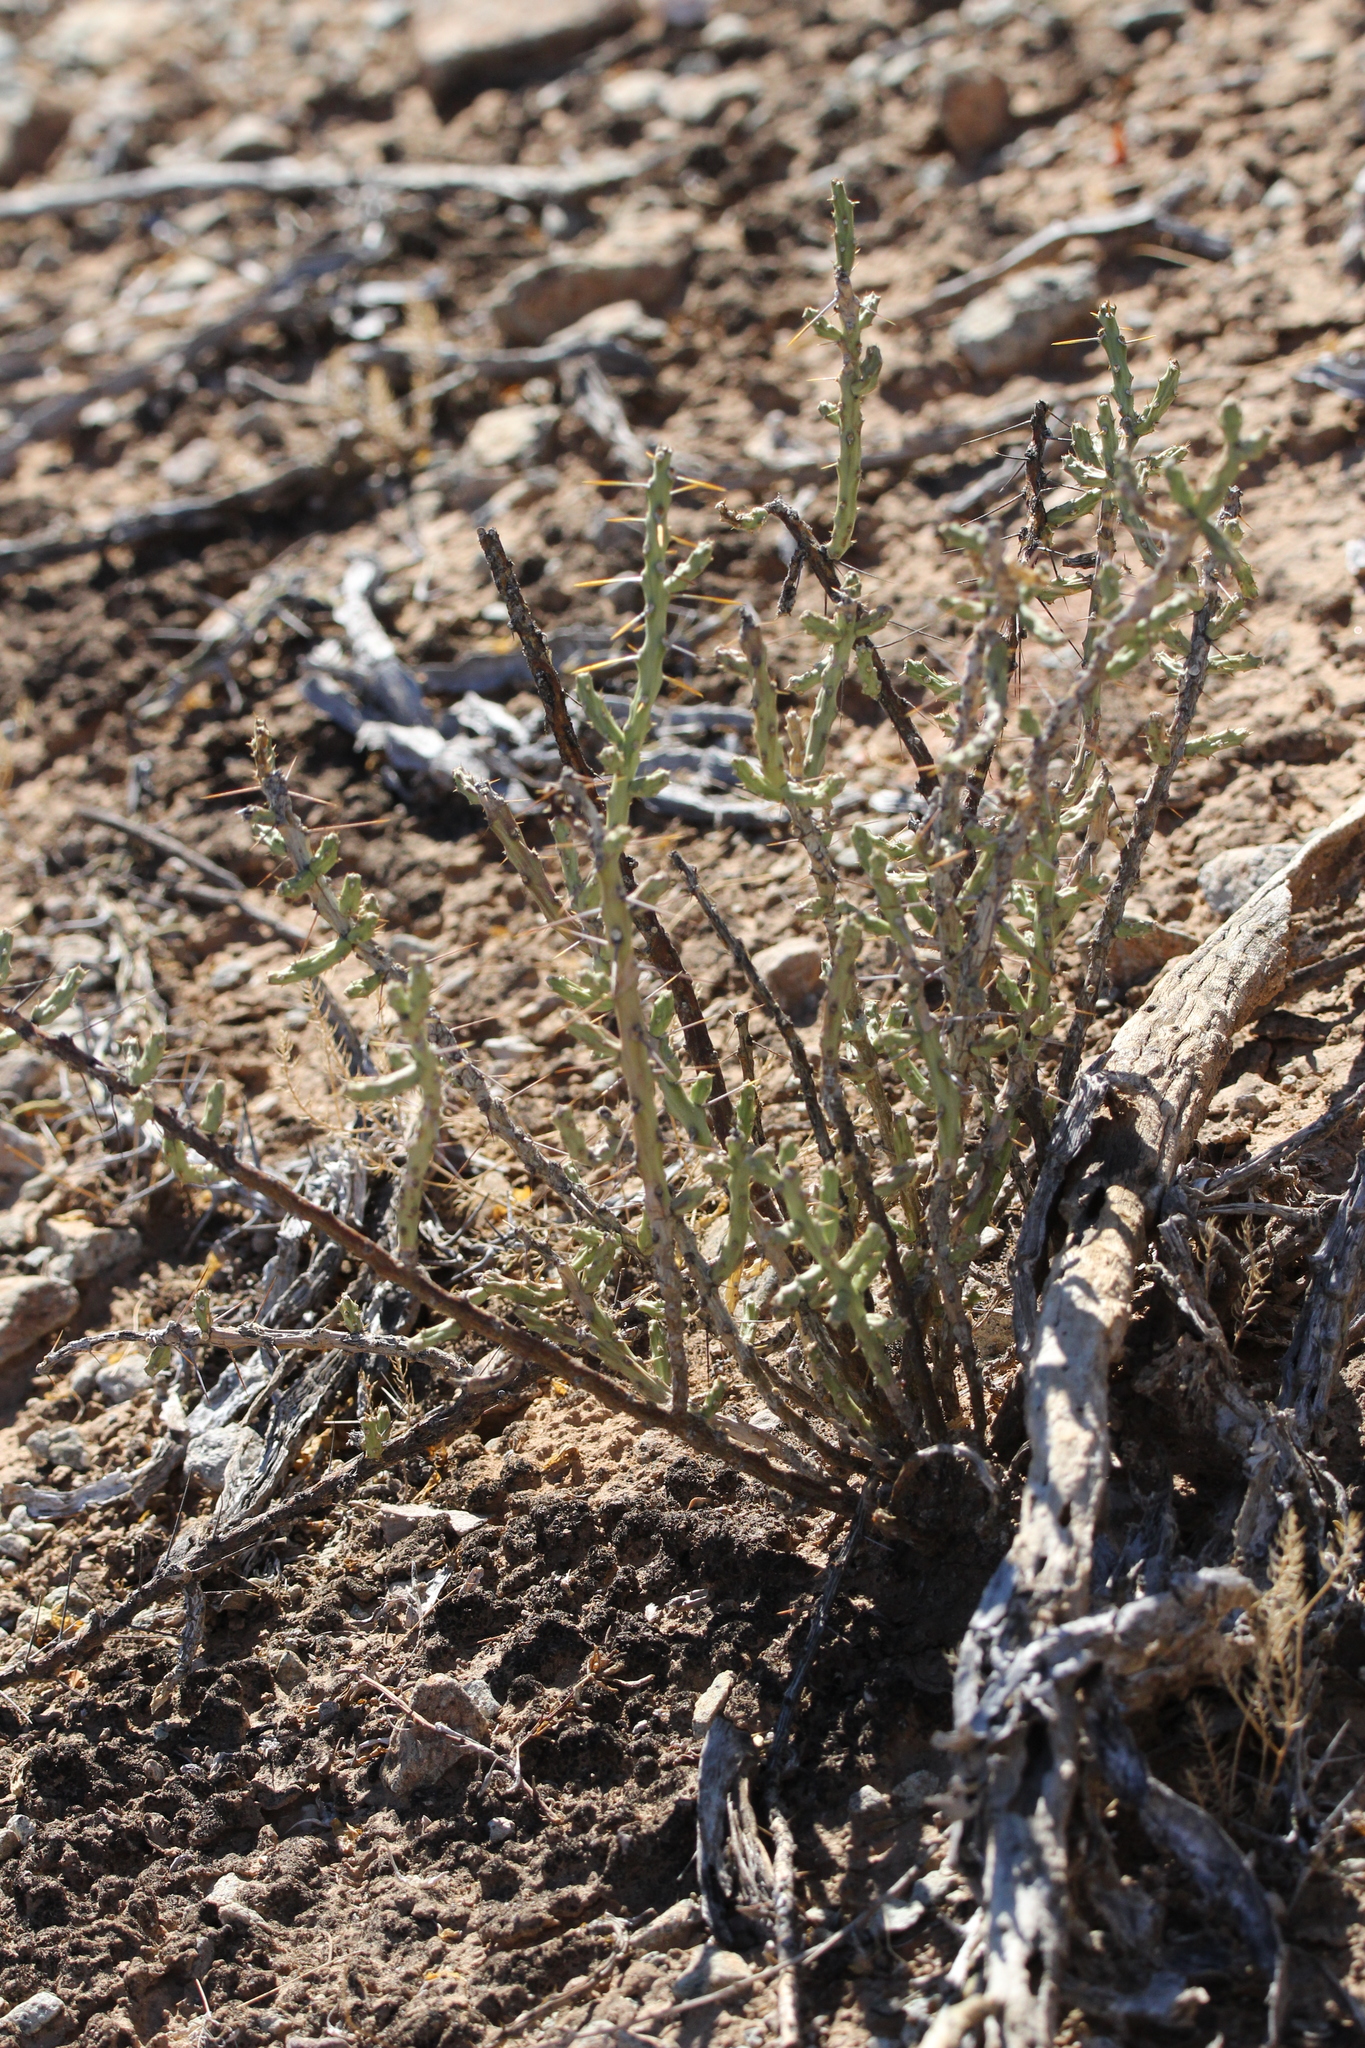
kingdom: Plantae
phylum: Tracheophyta
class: Magnoliopsida
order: Caryophyllales
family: Cactaceae
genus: Cylindropuntia
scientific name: Cylindropuntia leptocaulis
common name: Christmas cactus
